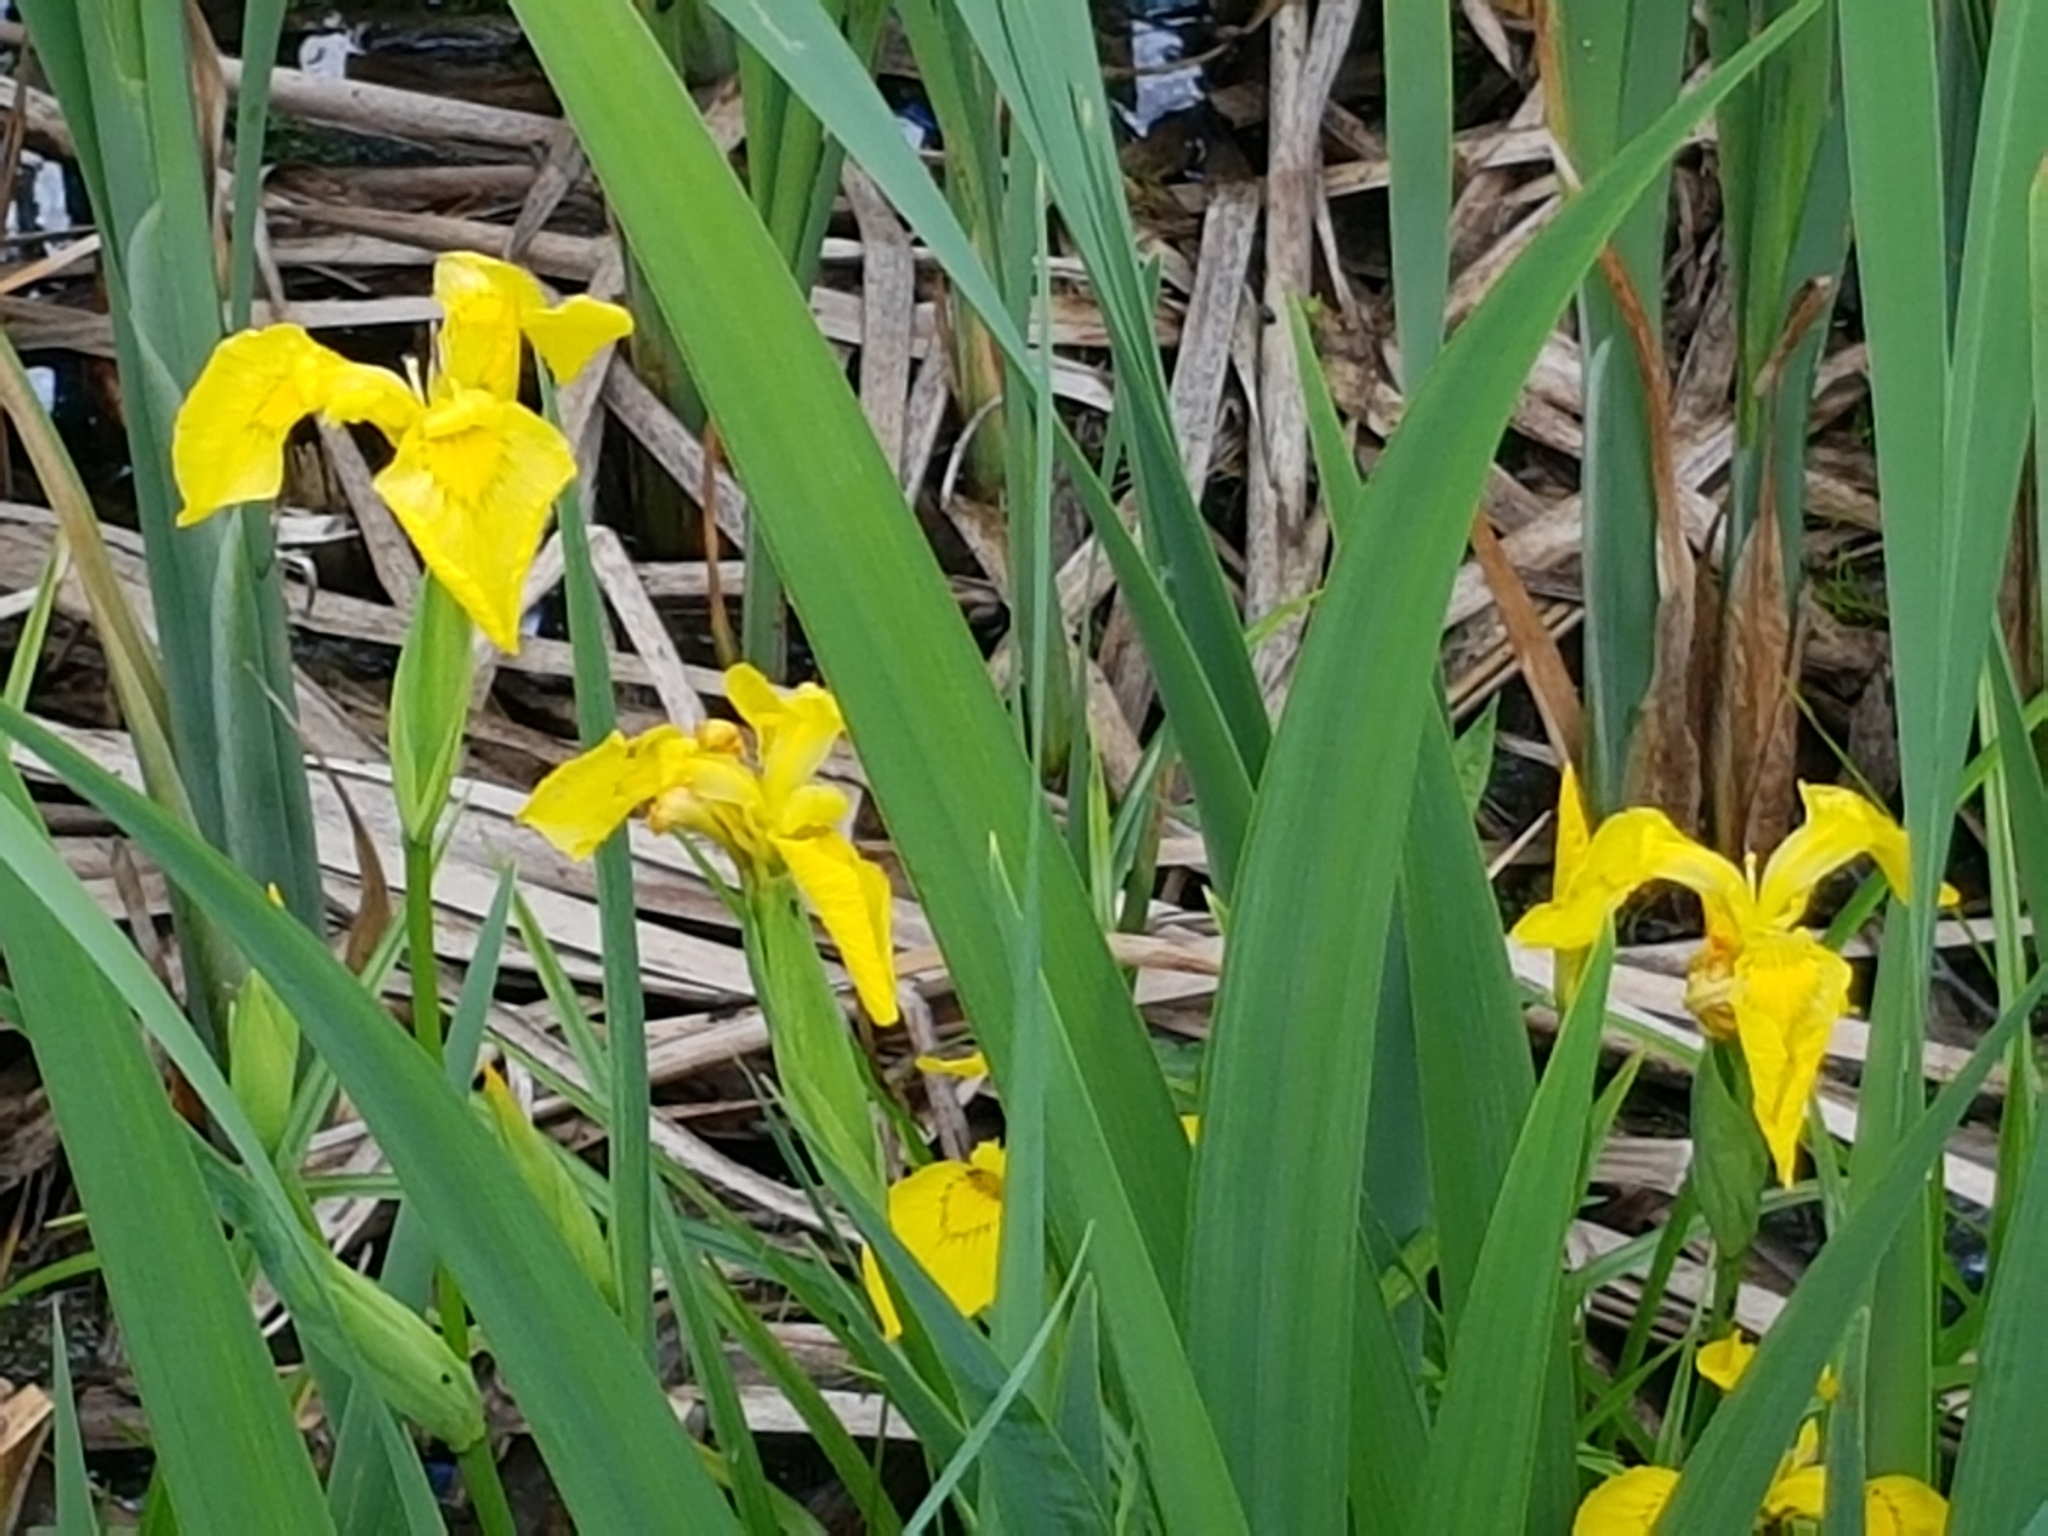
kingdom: Plantae
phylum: Tracheophyta
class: Liliopsida
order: Asparagales
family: Iridaceae
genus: Iris
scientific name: Iris pseudacorus
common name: Yellow flag
